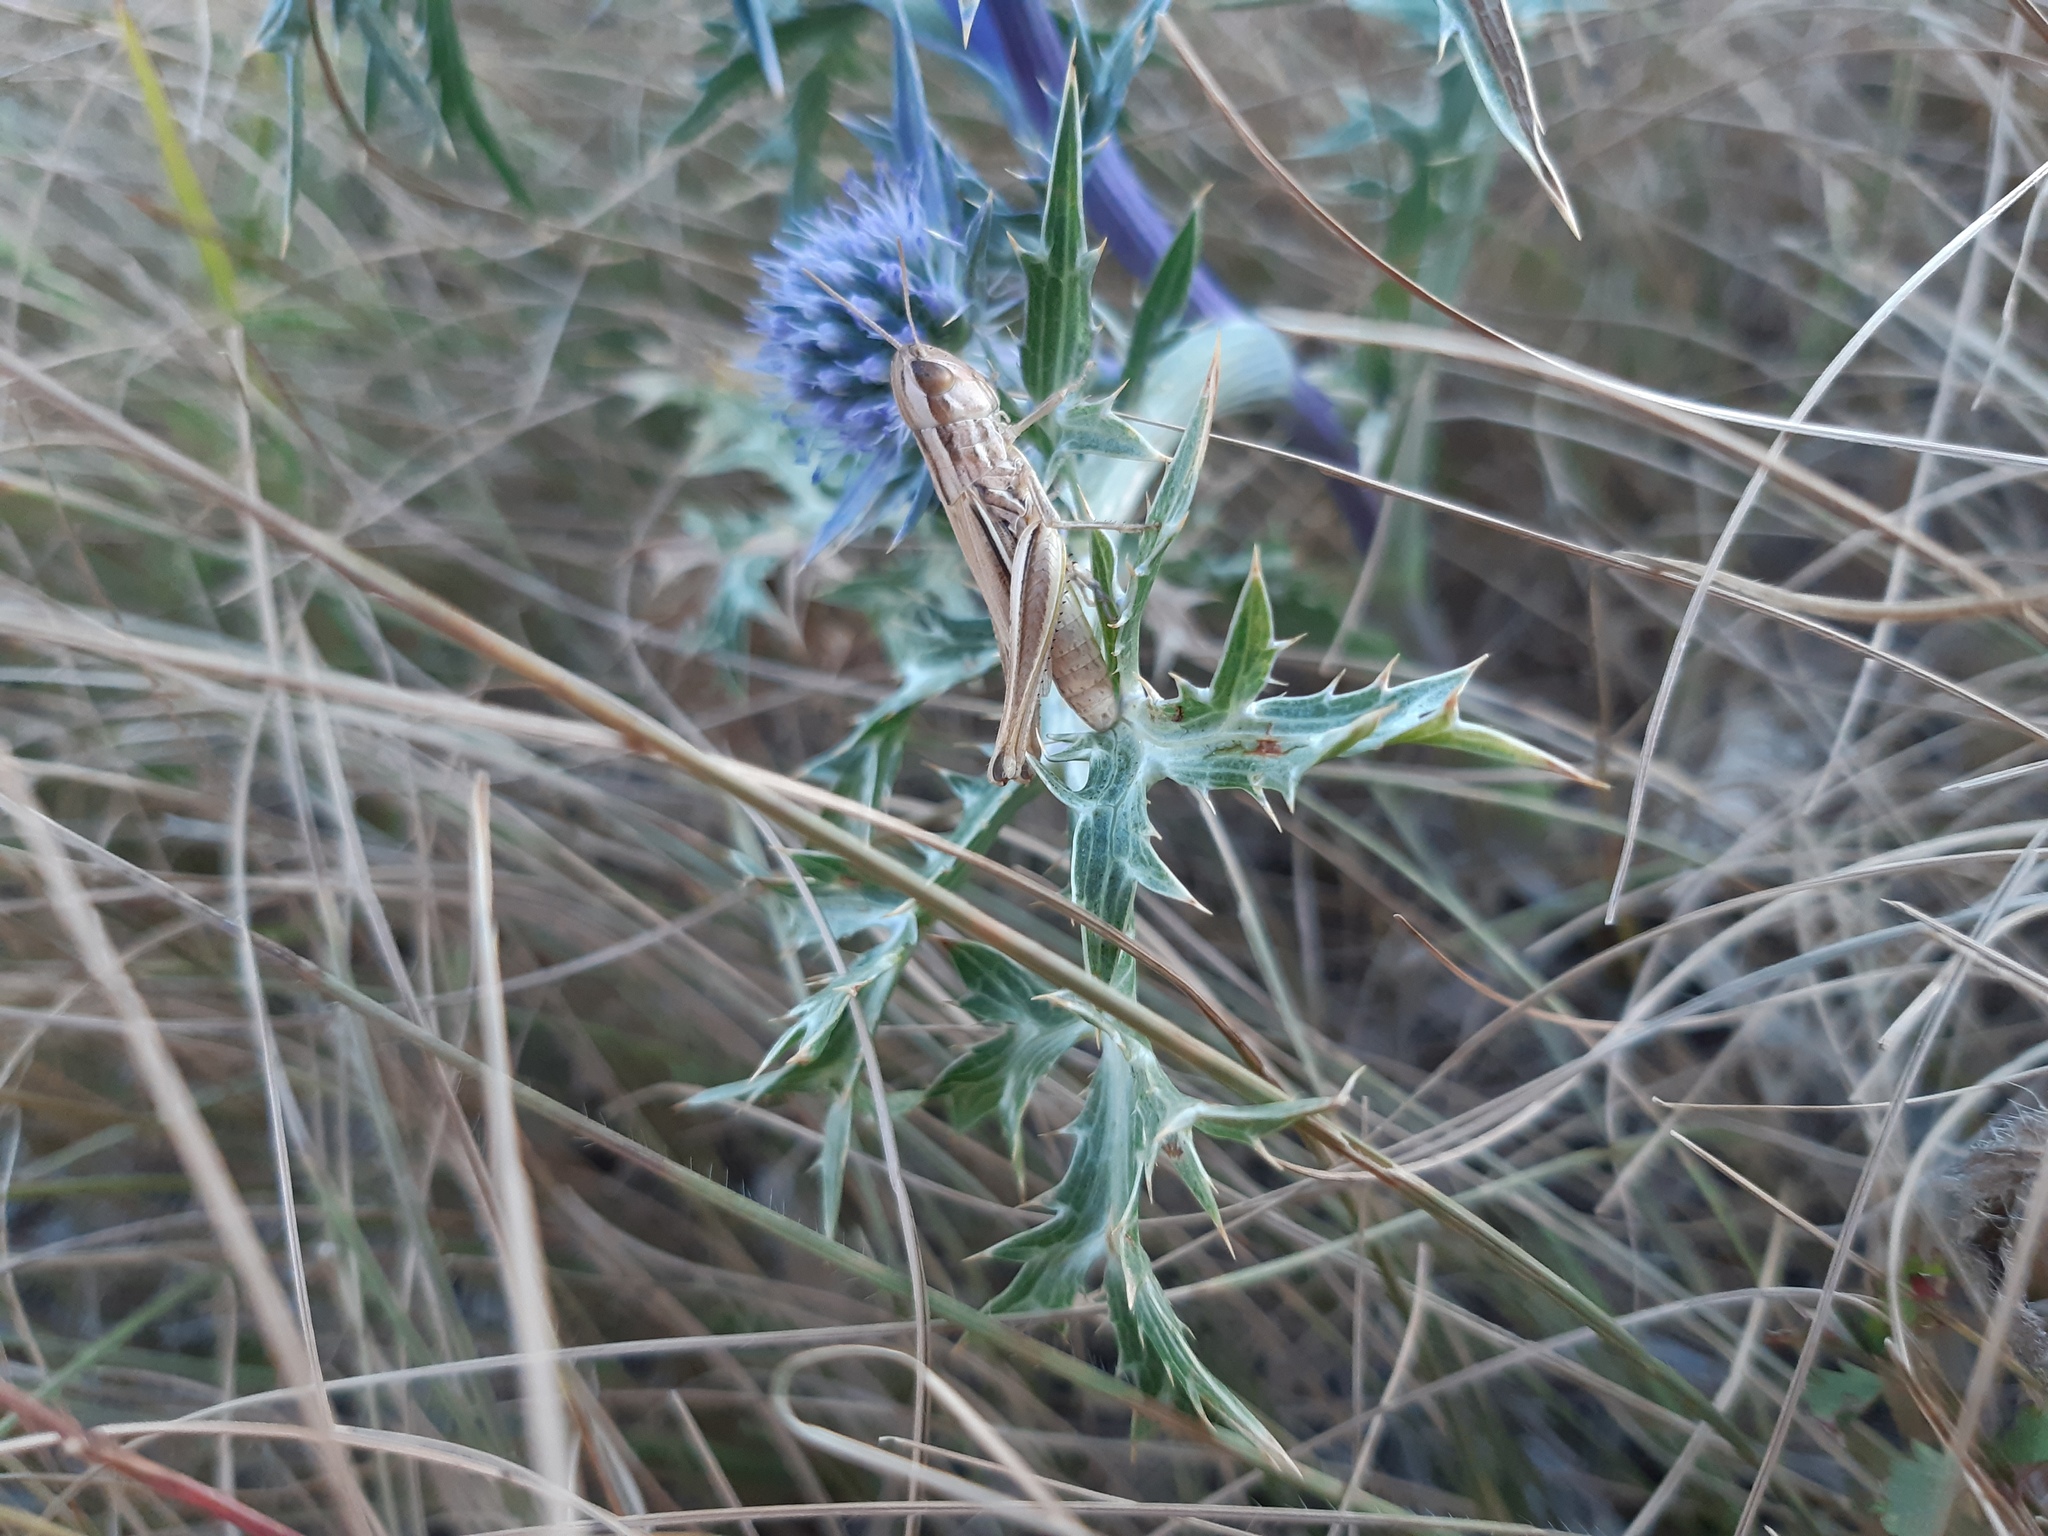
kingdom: Animalia
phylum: Arthropoda
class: Insecta
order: Orthoptera
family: Acrididae
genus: Euchorthippus
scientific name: Euchorthippus declivus
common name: Common straw grasshopper
